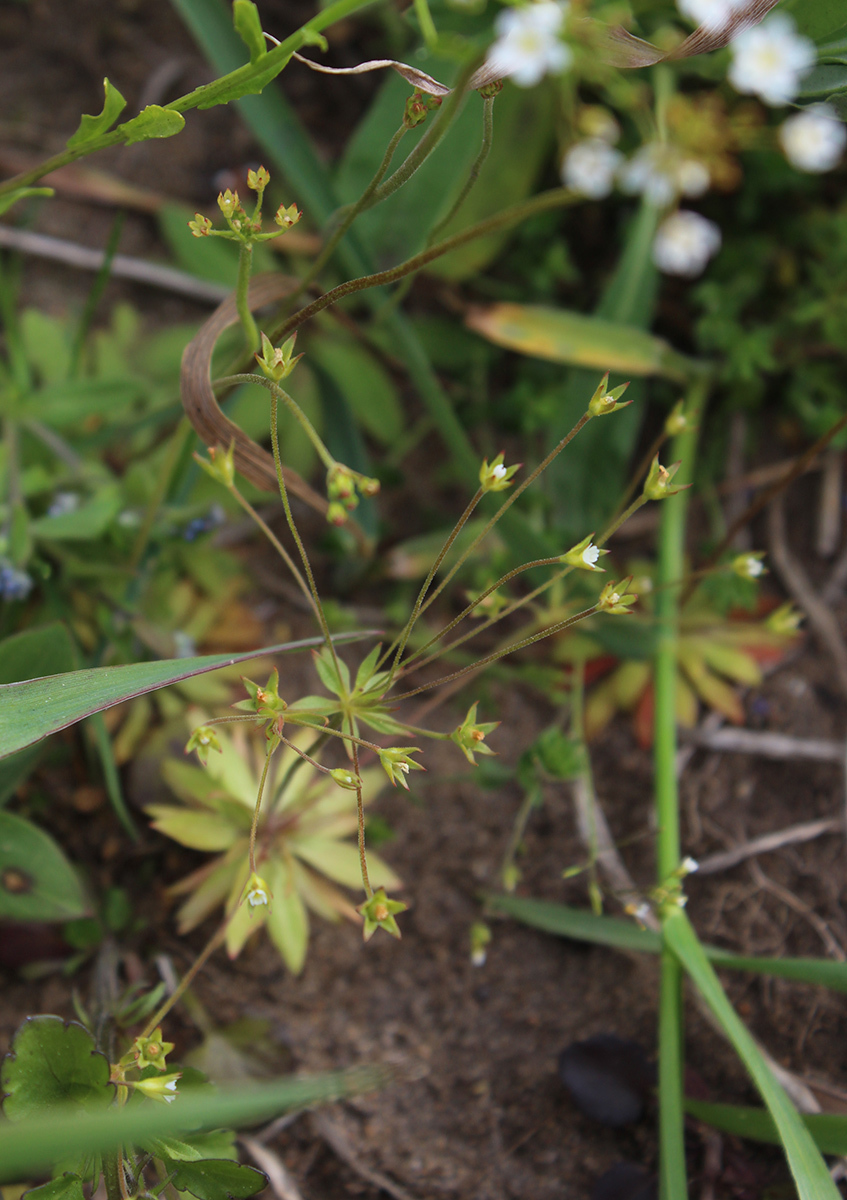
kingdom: Plantae
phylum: Tracheophyta
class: Magnoliopsida
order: Ericales
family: Primulaceae
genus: Androsace
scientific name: Androsace elongata
